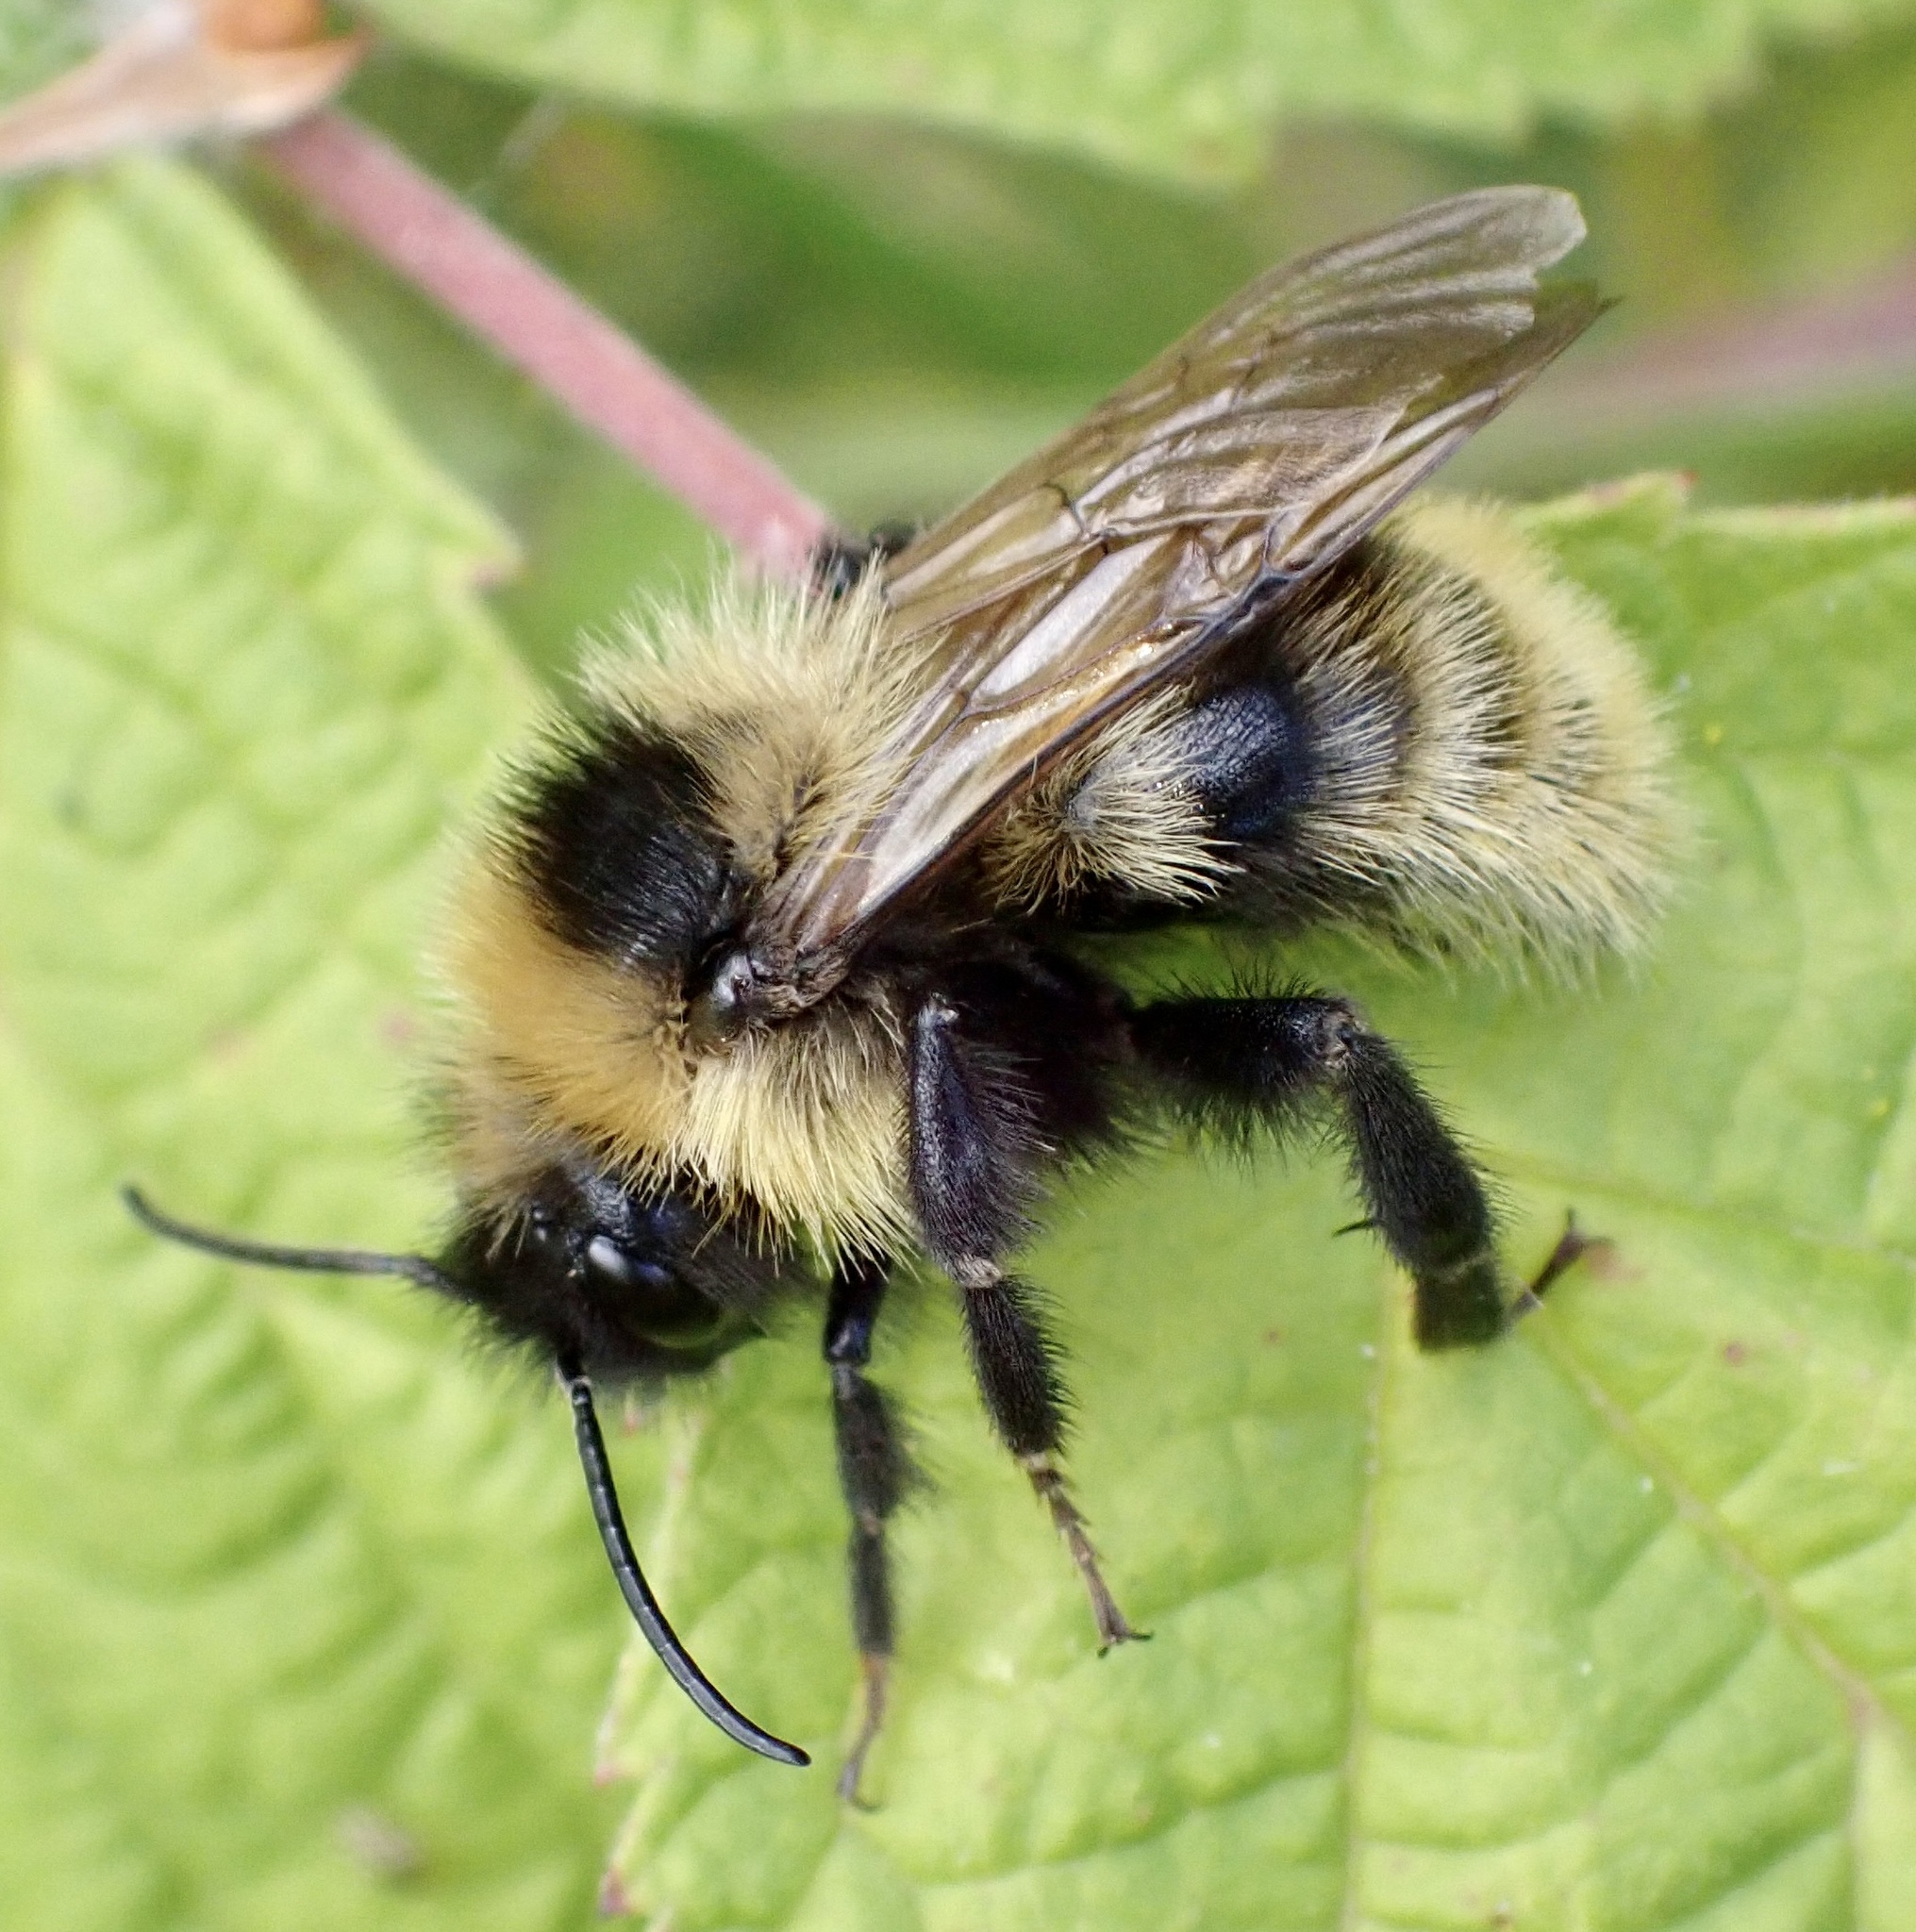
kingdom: Animalia
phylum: Arthropoda
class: Insecta
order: Hymenoptera
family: Apidae
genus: Bombus
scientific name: Bombus campestris
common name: Field cuckoo-bee
